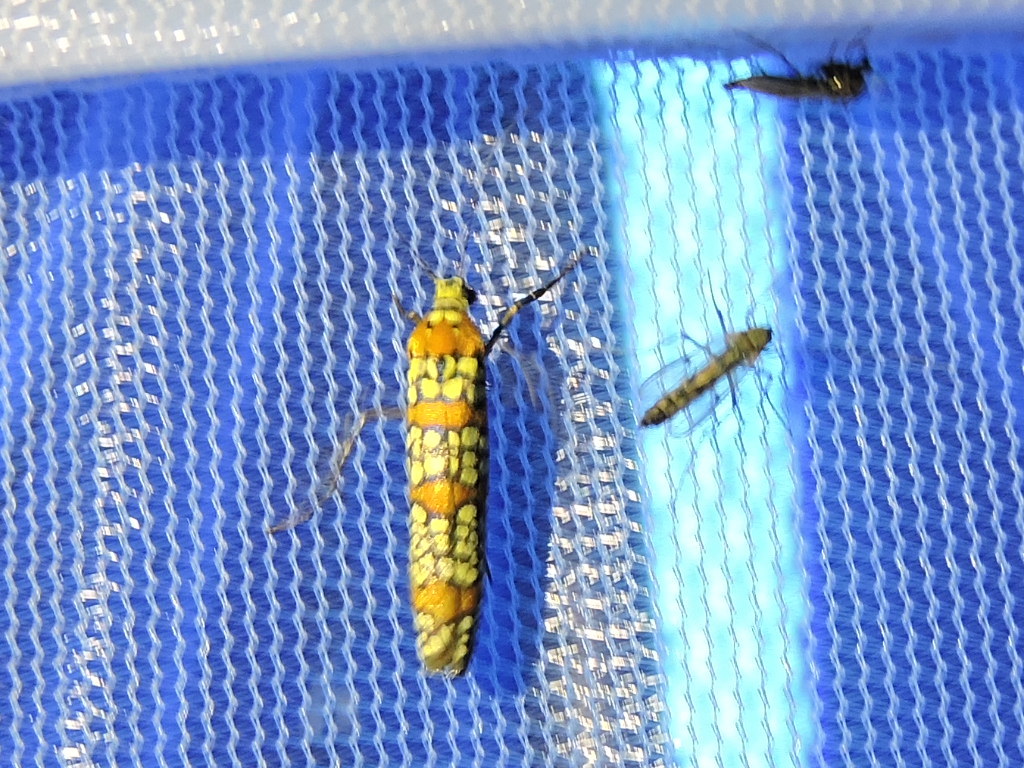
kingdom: Animalia
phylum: Arthropoda
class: Insecta
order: Lepidoptera
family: Attevidae
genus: Atteva
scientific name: Atteva punctella
